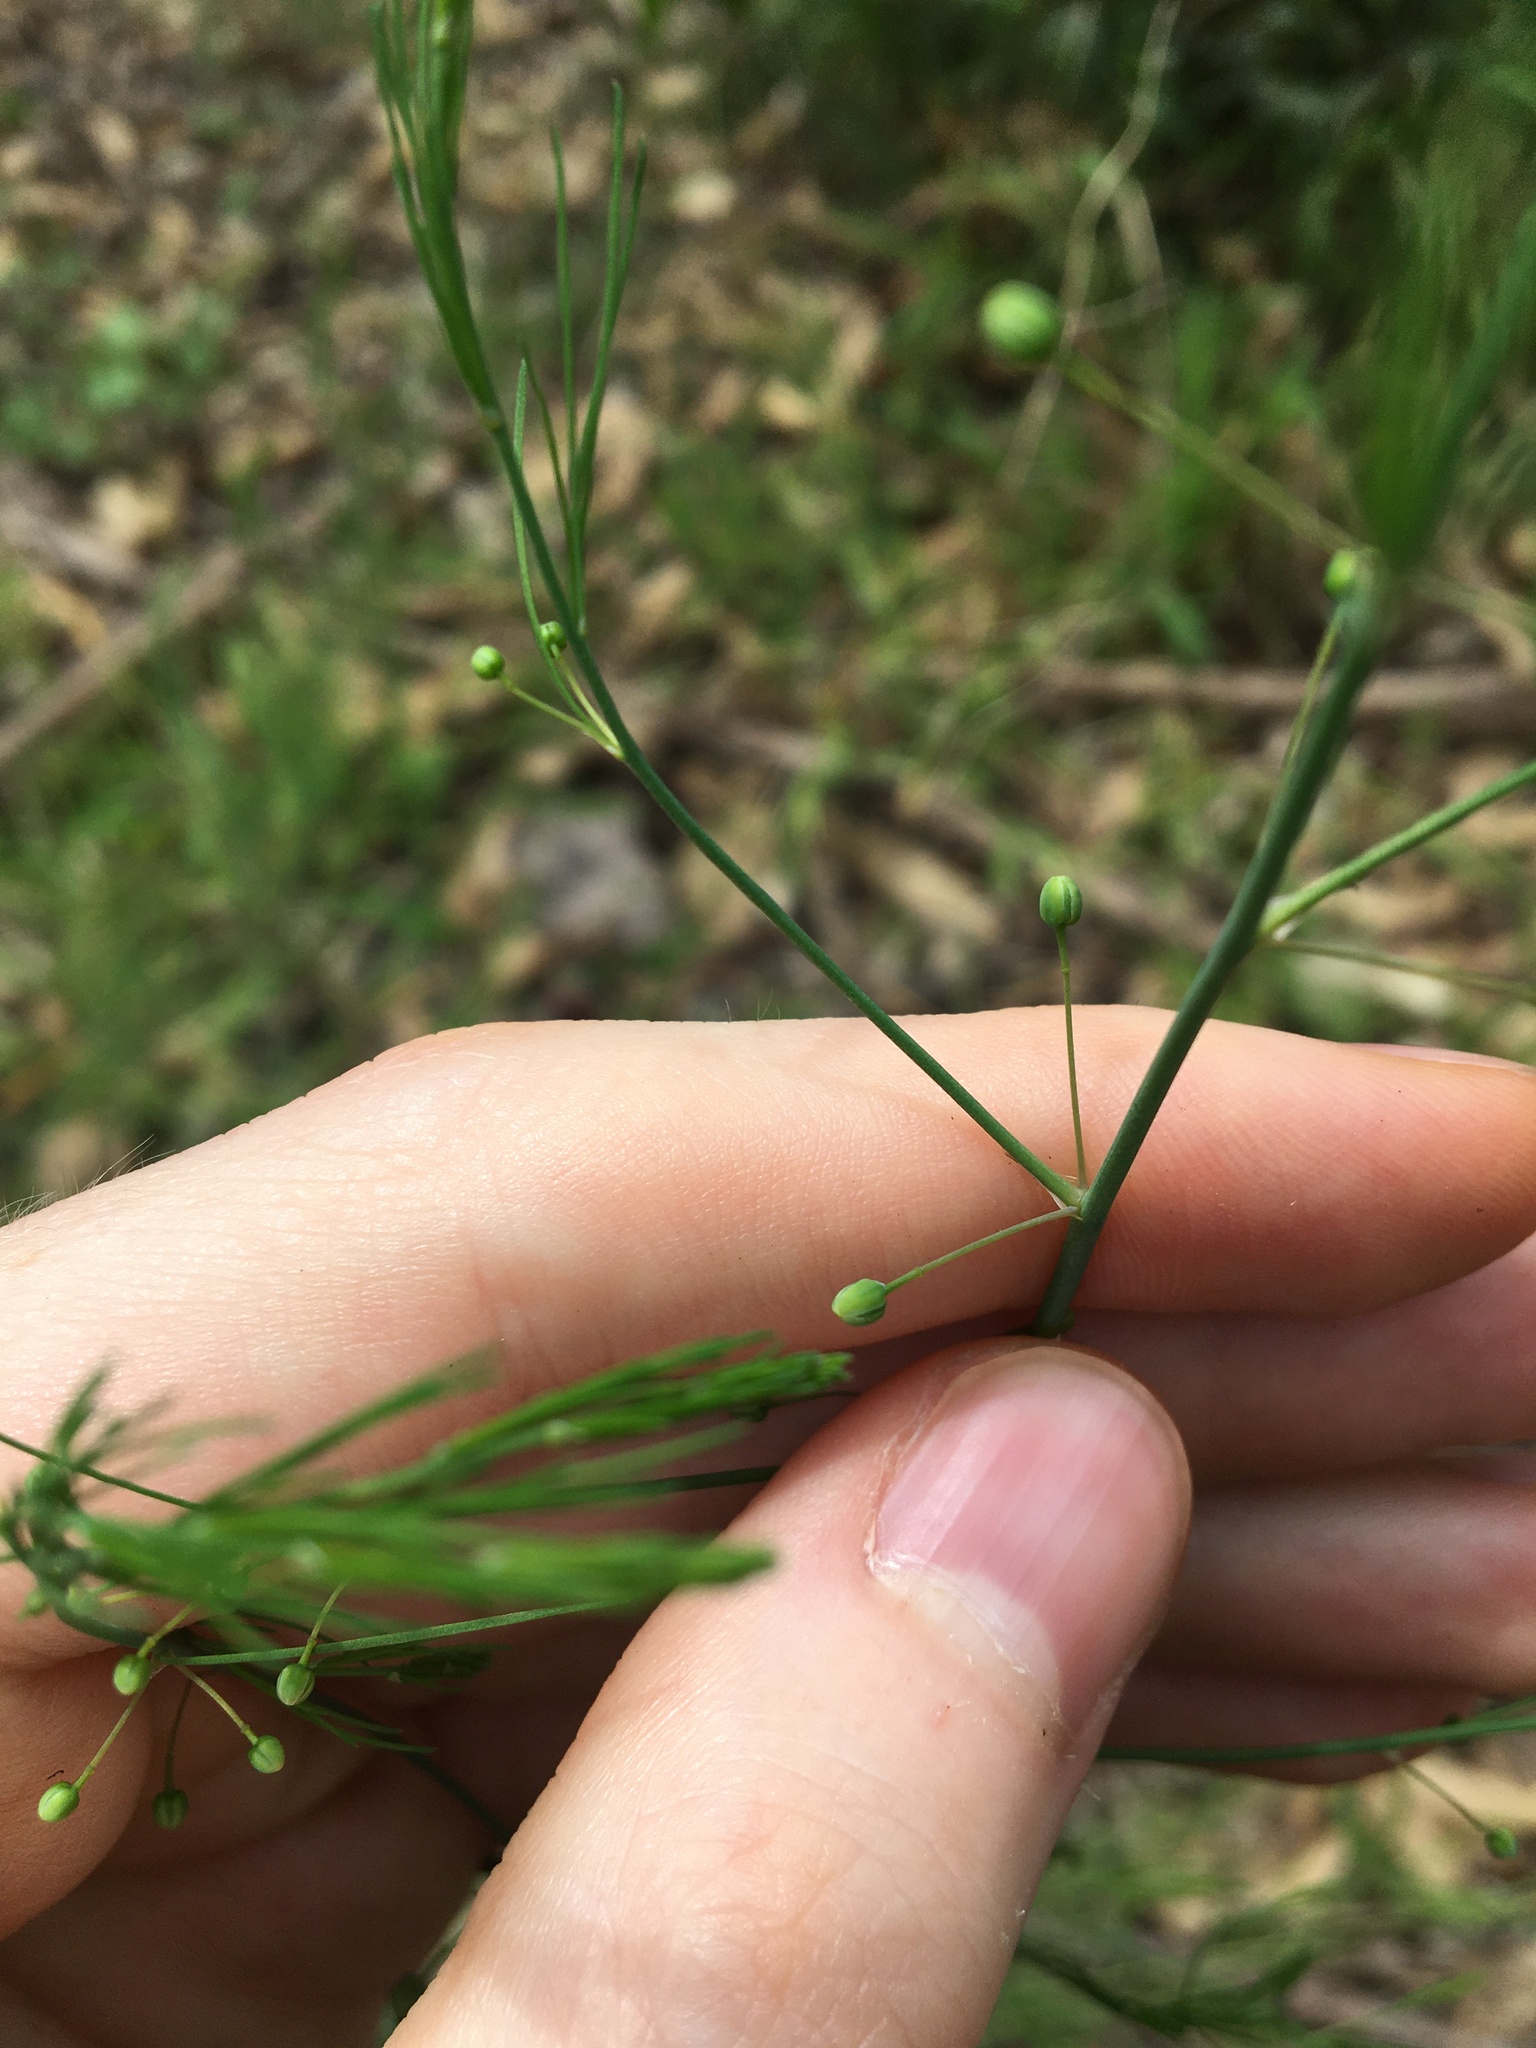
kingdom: Plantae
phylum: Tracheophyta
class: Liliopsida
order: Asparagales
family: Asparagaceae
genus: Asparagus
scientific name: Asparagus officinalis
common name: Garden asparagus
